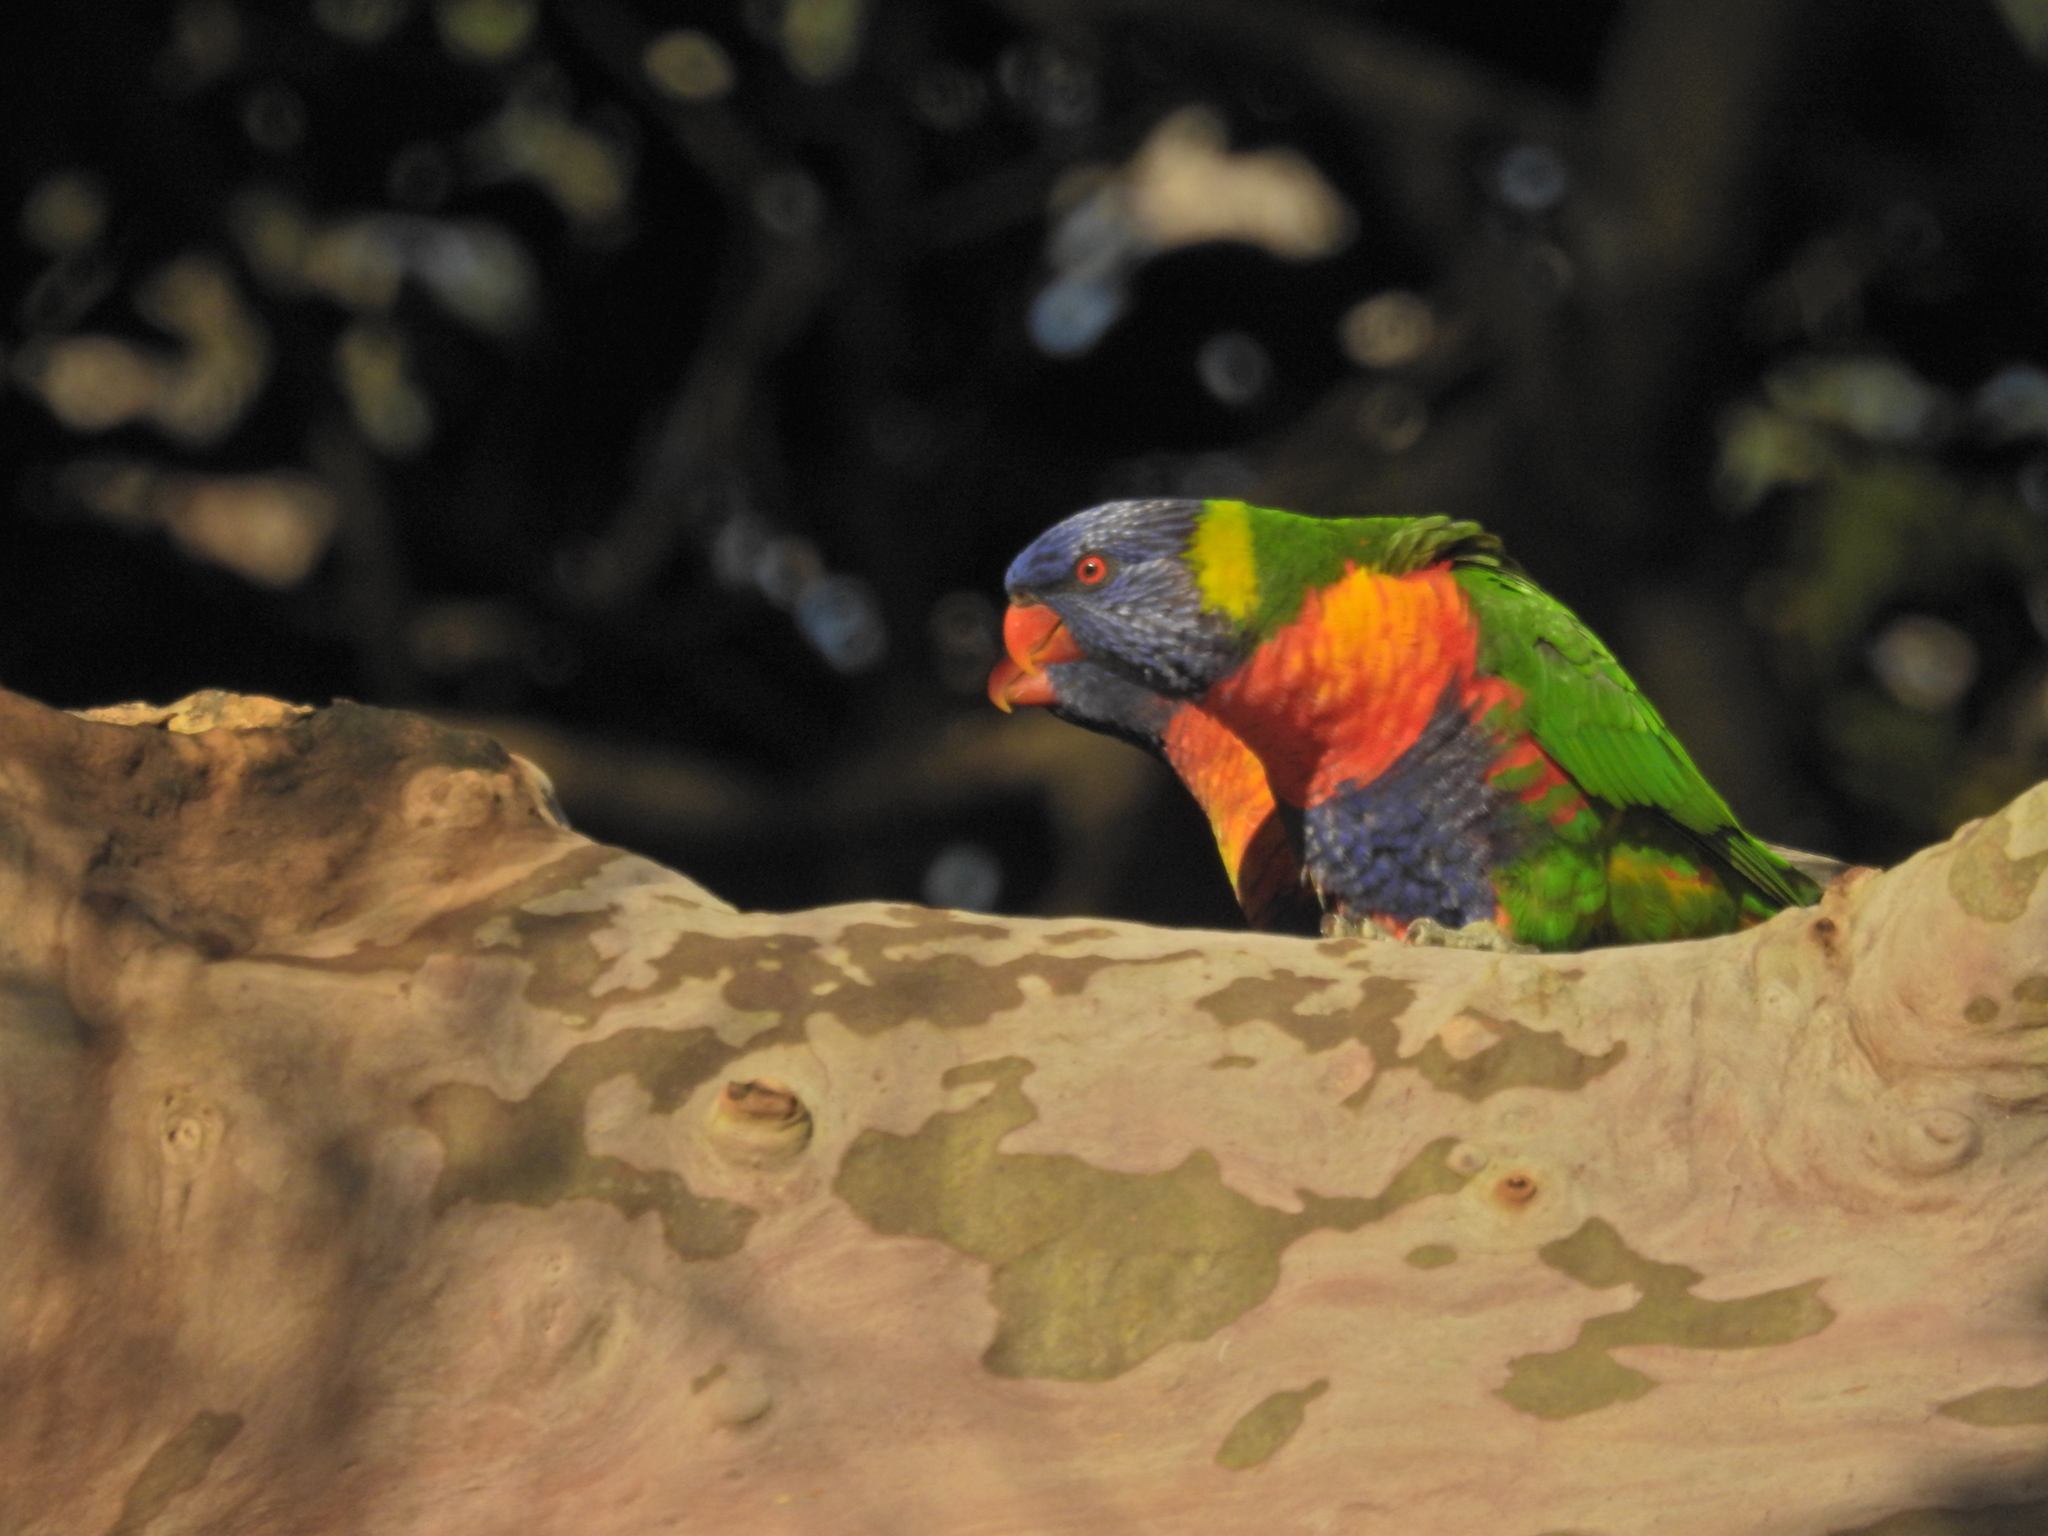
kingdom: Animalia
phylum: Chordata
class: Aves
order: Psittaciformes
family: Psittacidae
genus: Trichoglossus
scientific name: Trichoglossus haematodus
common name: Coconut lorikeet
